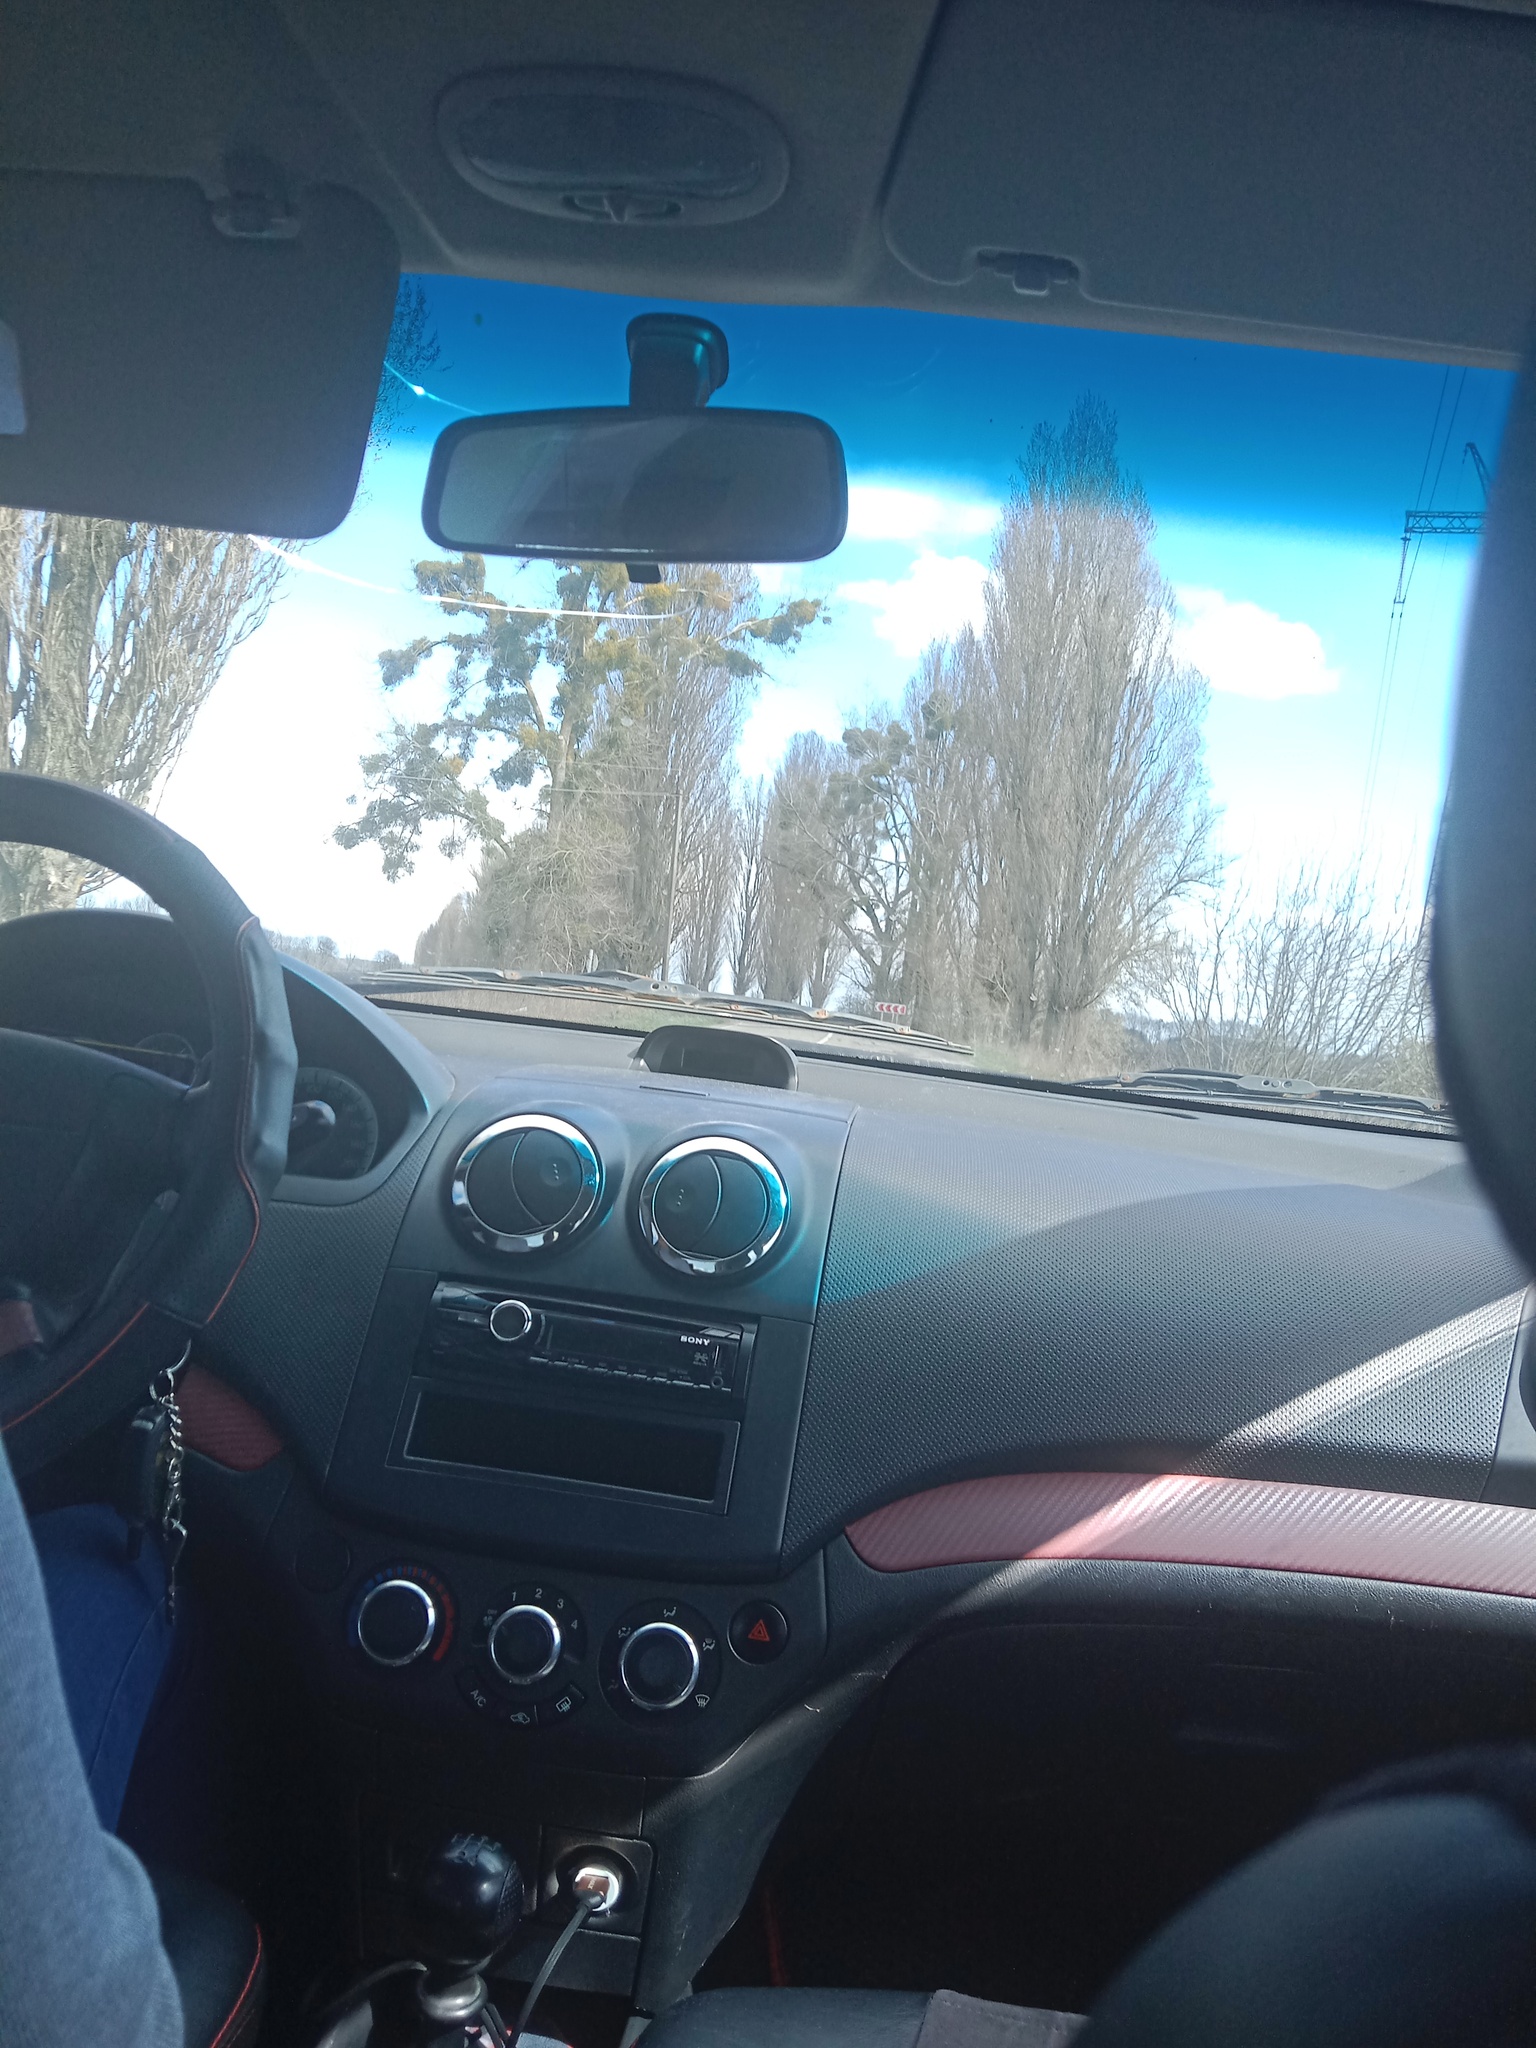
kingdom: Plantae
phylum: Tracheophyta
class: Magnoliopsida
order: Santalales
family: Viscaceae
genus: Viscum
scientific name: Viscum album
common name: Mistletoe
